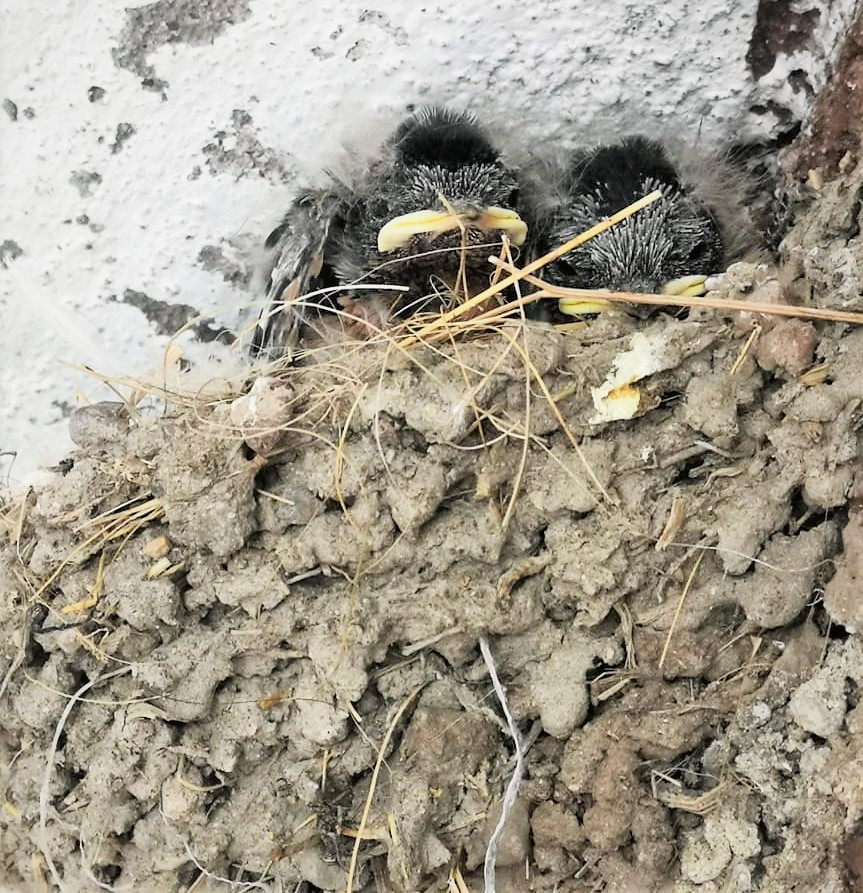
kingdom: Animalia
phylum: Chordata
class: Aves
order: Passeriformes
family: Hirundinidae
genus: Hirundo
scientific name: Hirundo rustica
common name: Barn swallow
